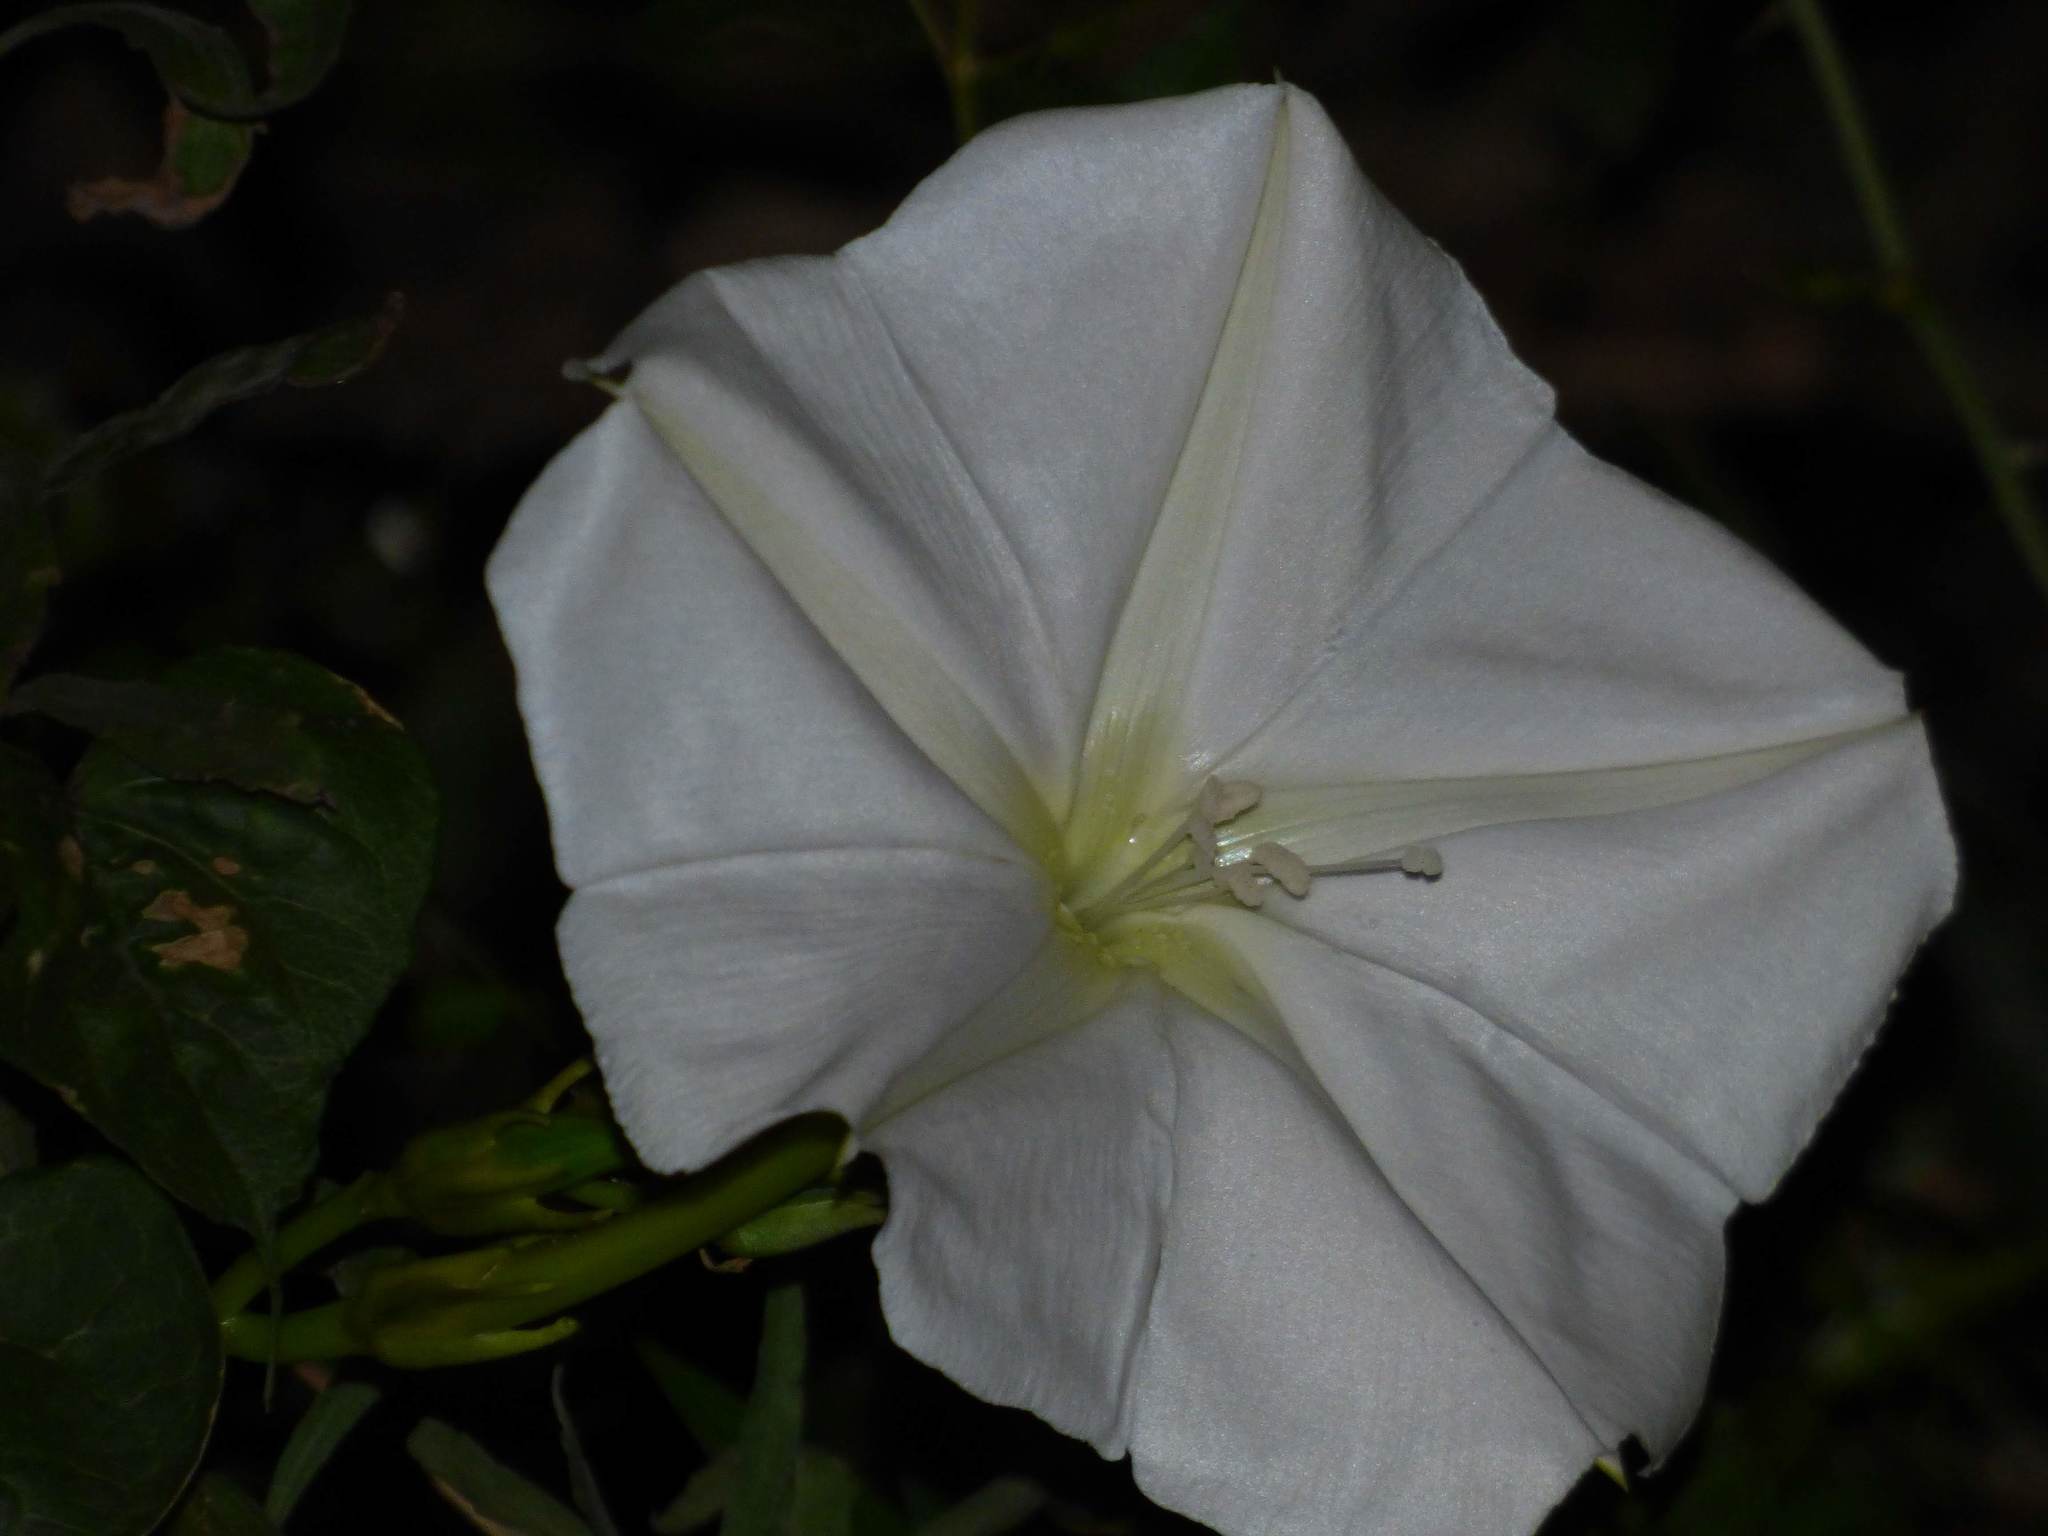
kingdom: Plantae
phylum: Tracheophyta
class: Magnoliopsida
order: Solanales
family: Convolvulaceae
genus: Ipomoea
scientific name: Ipomoea alba
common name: Moonflower
